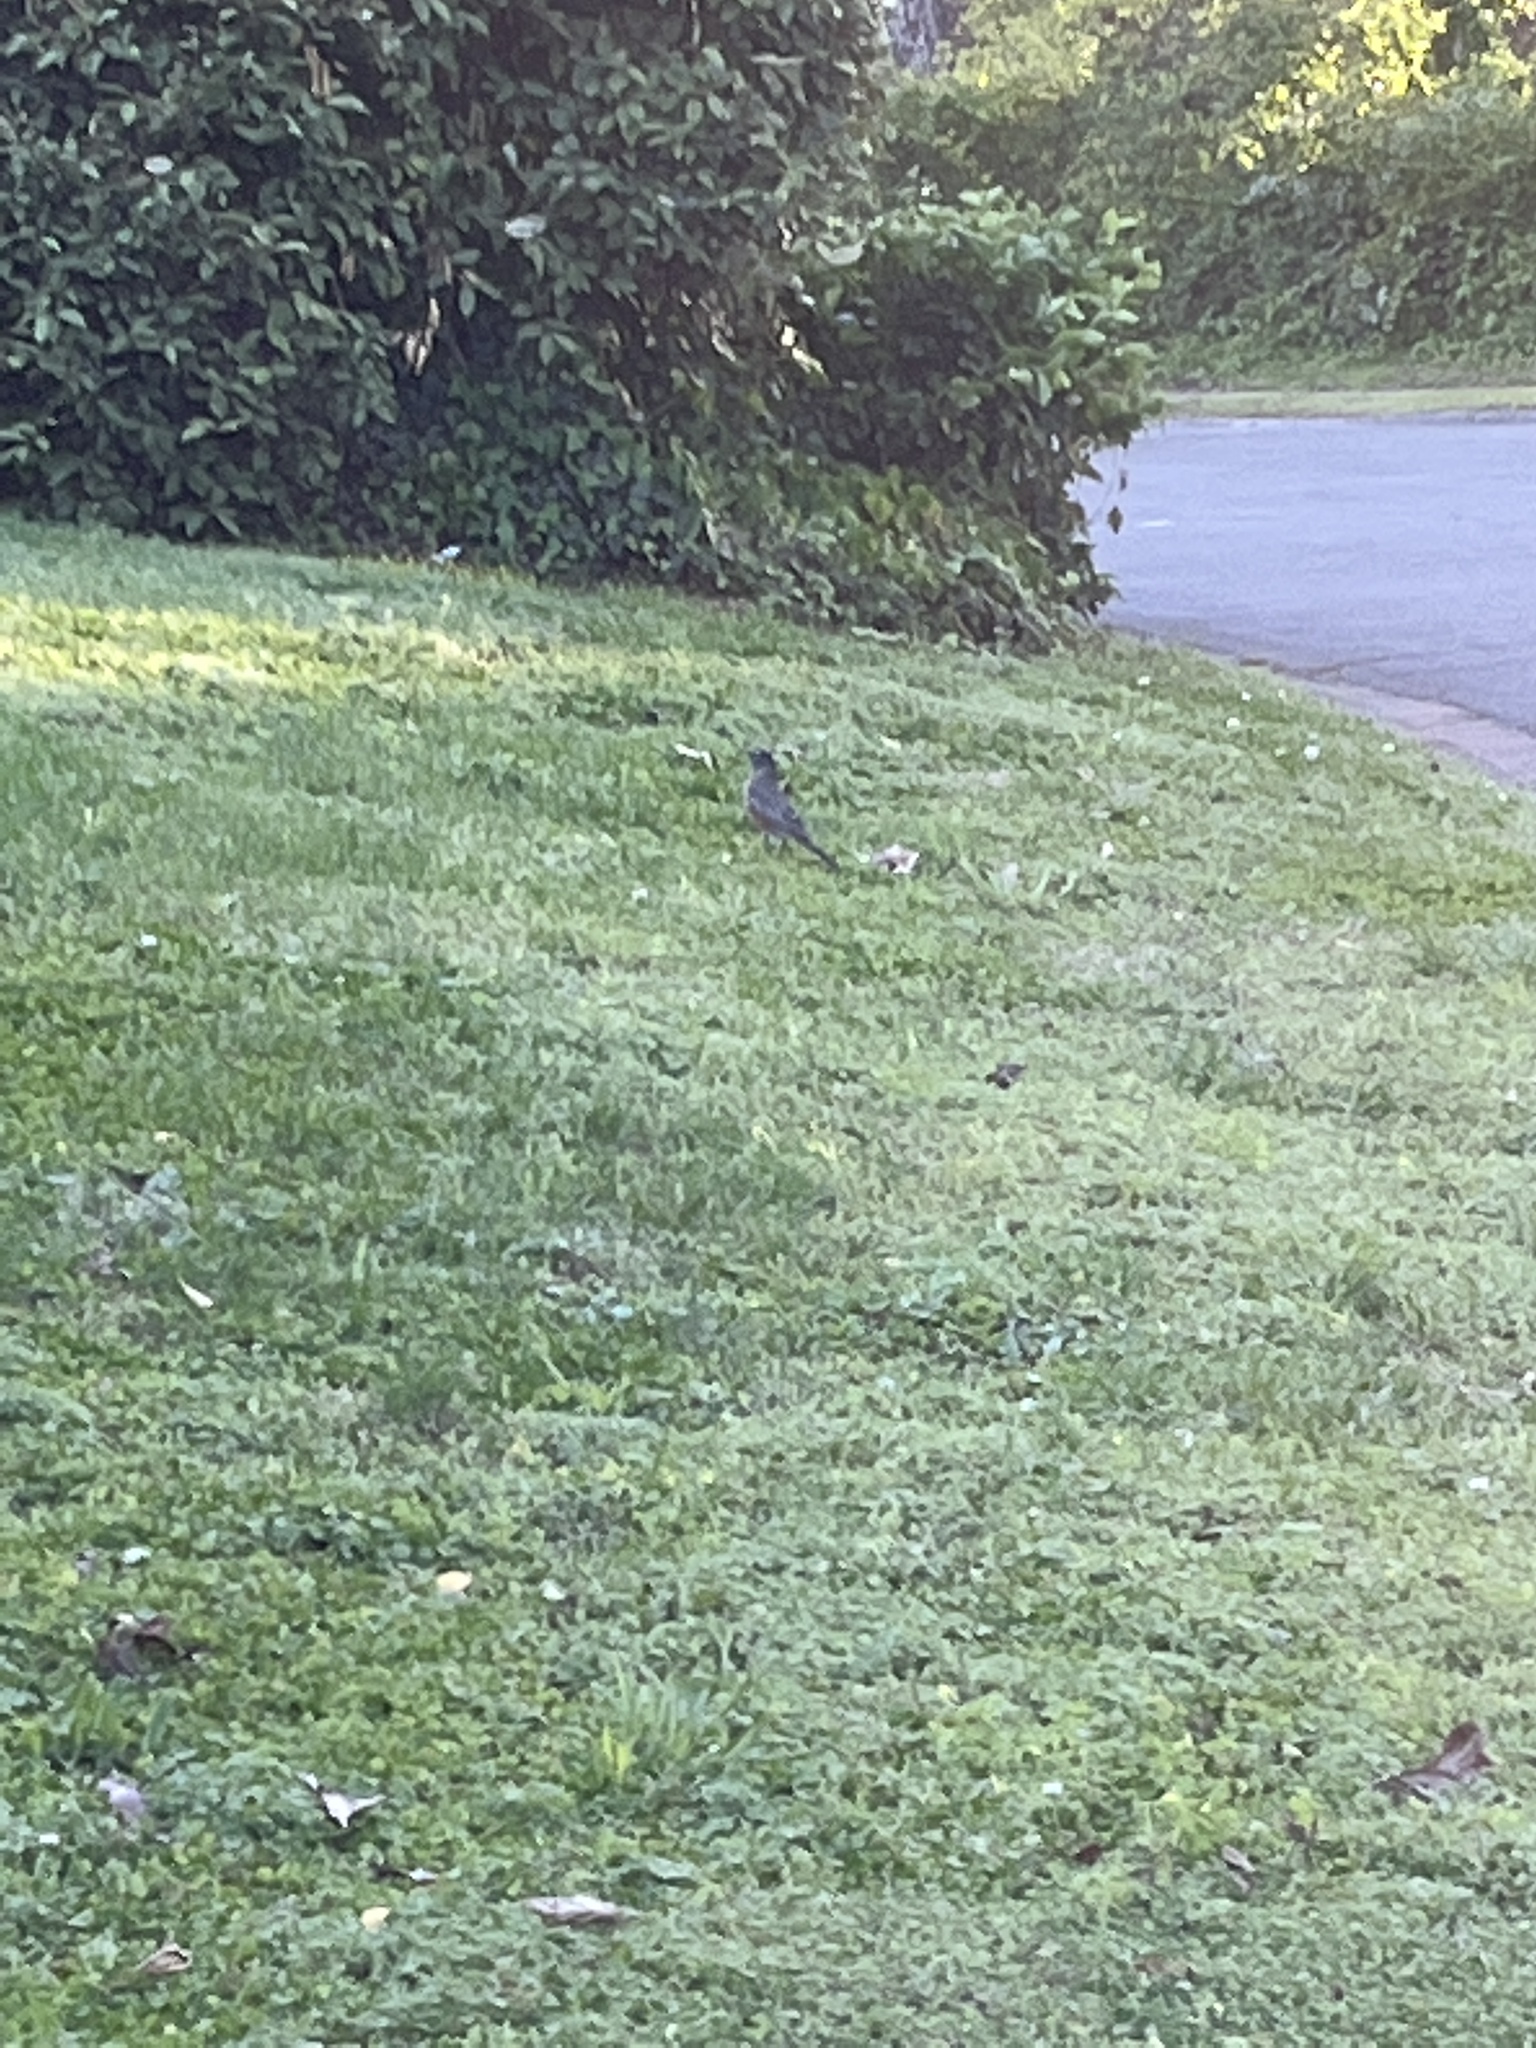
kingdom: Animalia
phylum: Chordata
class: Aves
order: Passeriformes
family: Turdidae
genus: Turdus
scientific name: Turdus migratorius
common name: American robin
